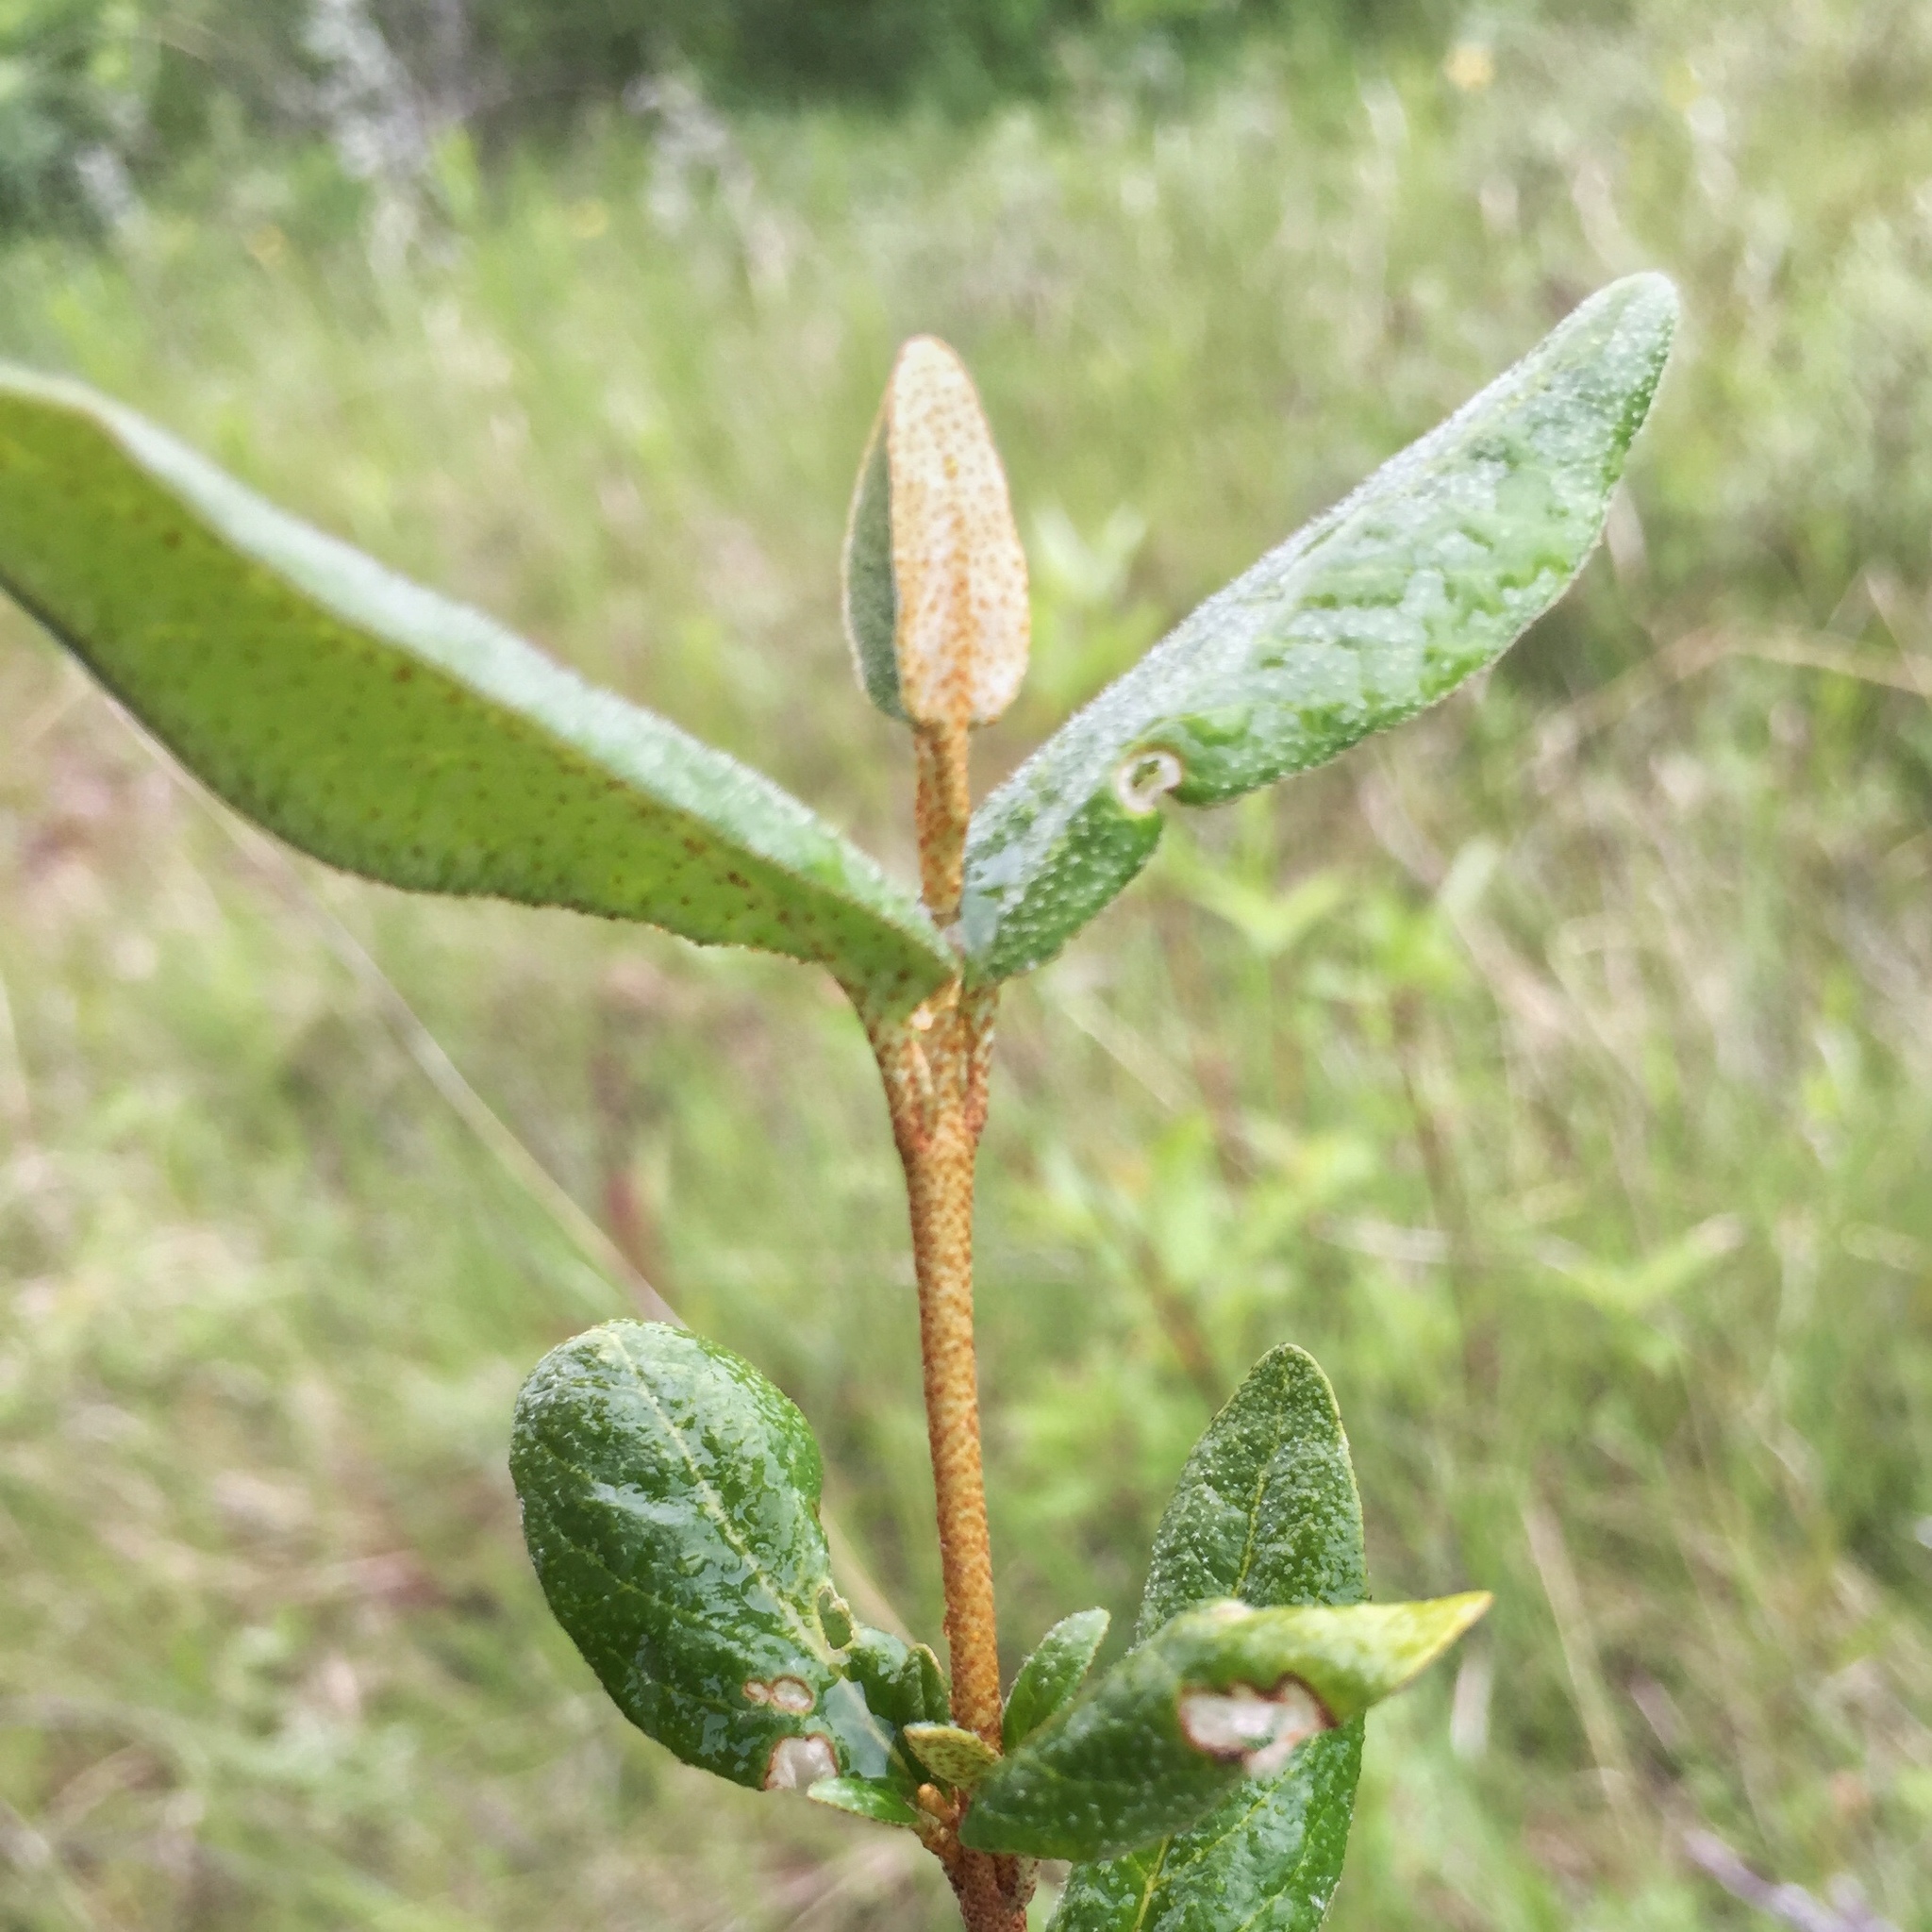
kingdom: Plantae
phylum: Tracheophyta
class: Magnoliopsida
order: Rosales
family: Elaeagnaceae
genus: Shepherdia
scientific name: Shepherdia canadensis
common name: Soapberry
